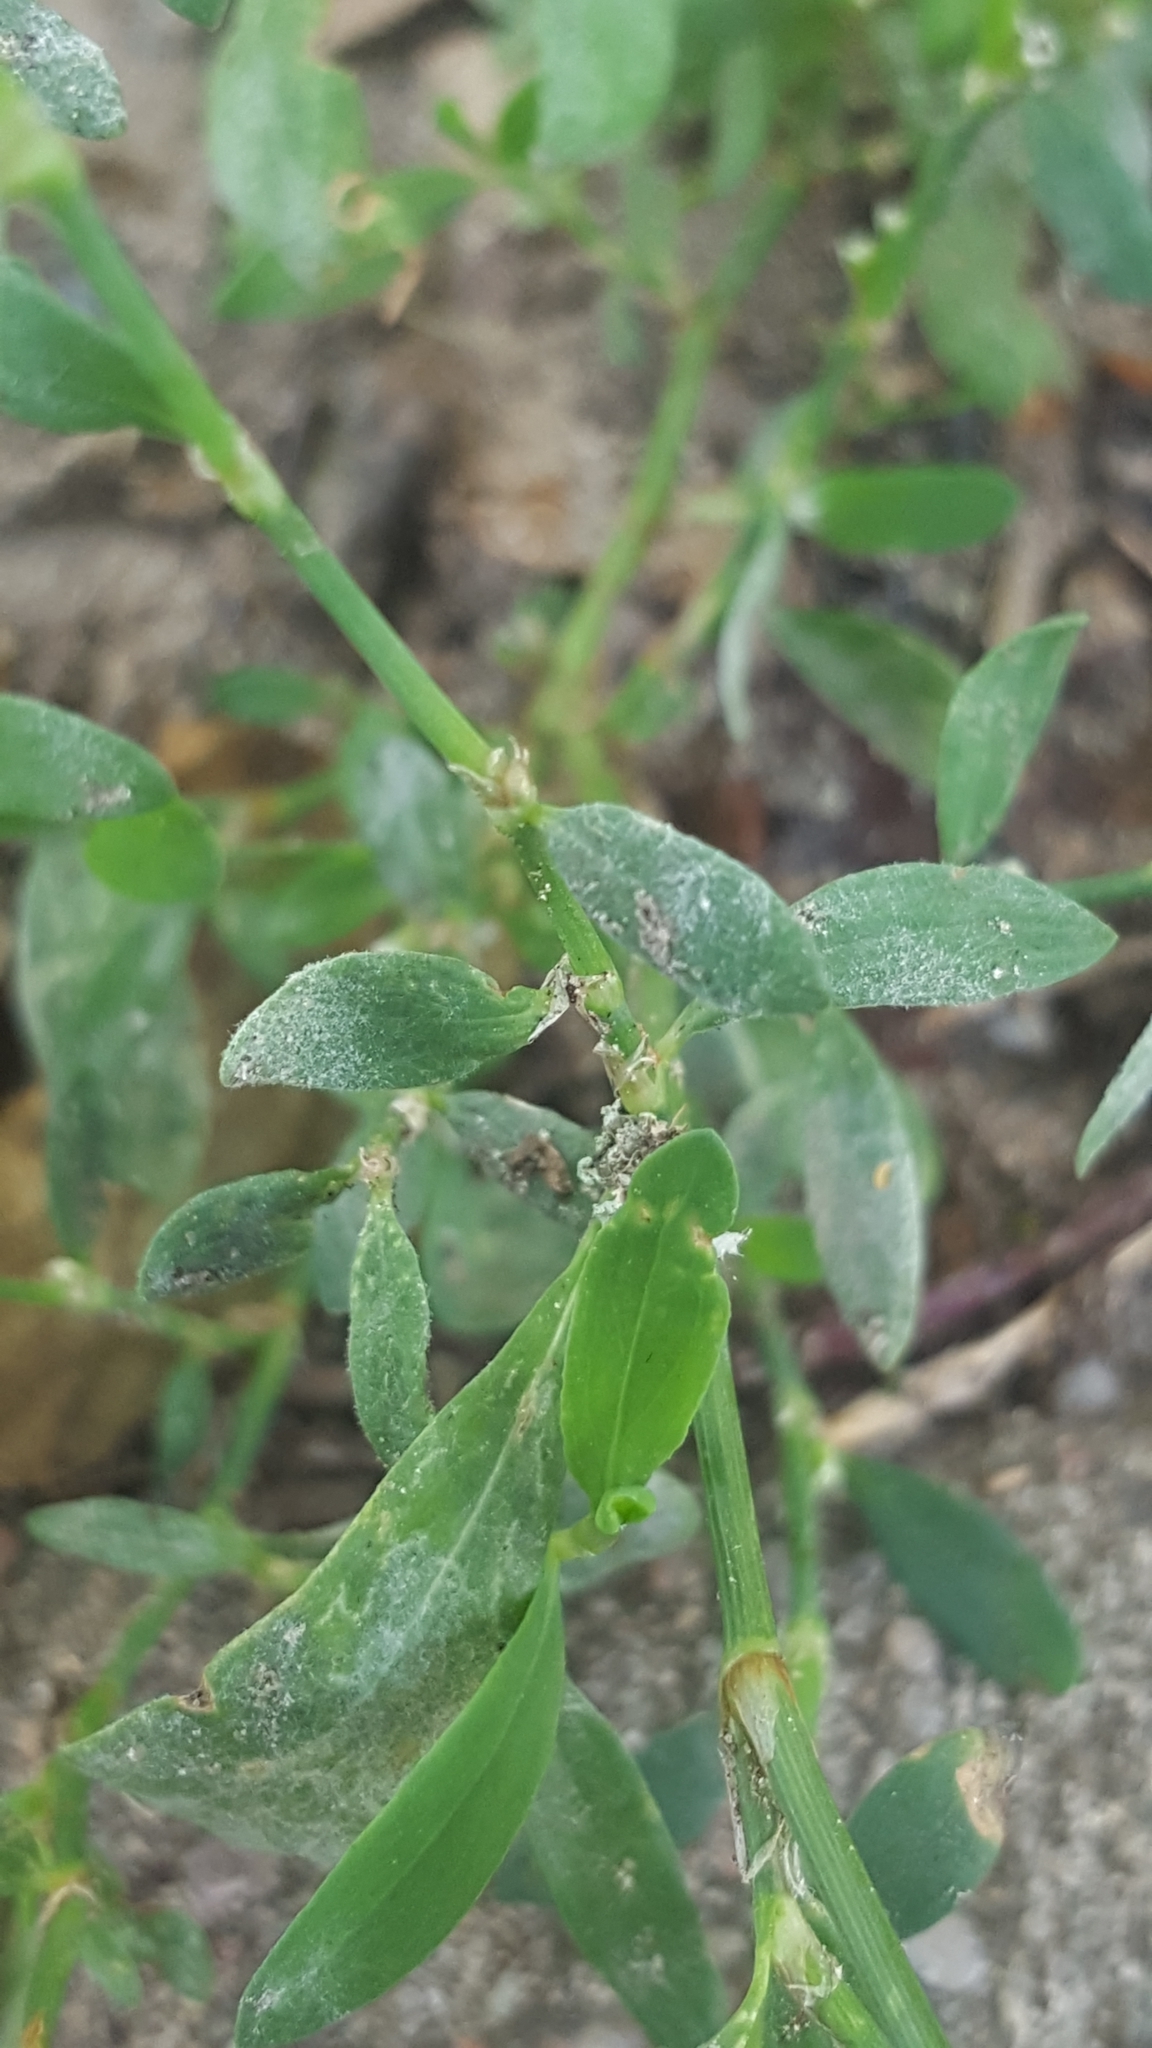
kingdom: Fungi
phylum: Ascomycota
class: Leotiomycetes
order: Helotiales
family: Erysiphaceae
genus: Erysiphe
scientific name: Erysiphe polygoni
